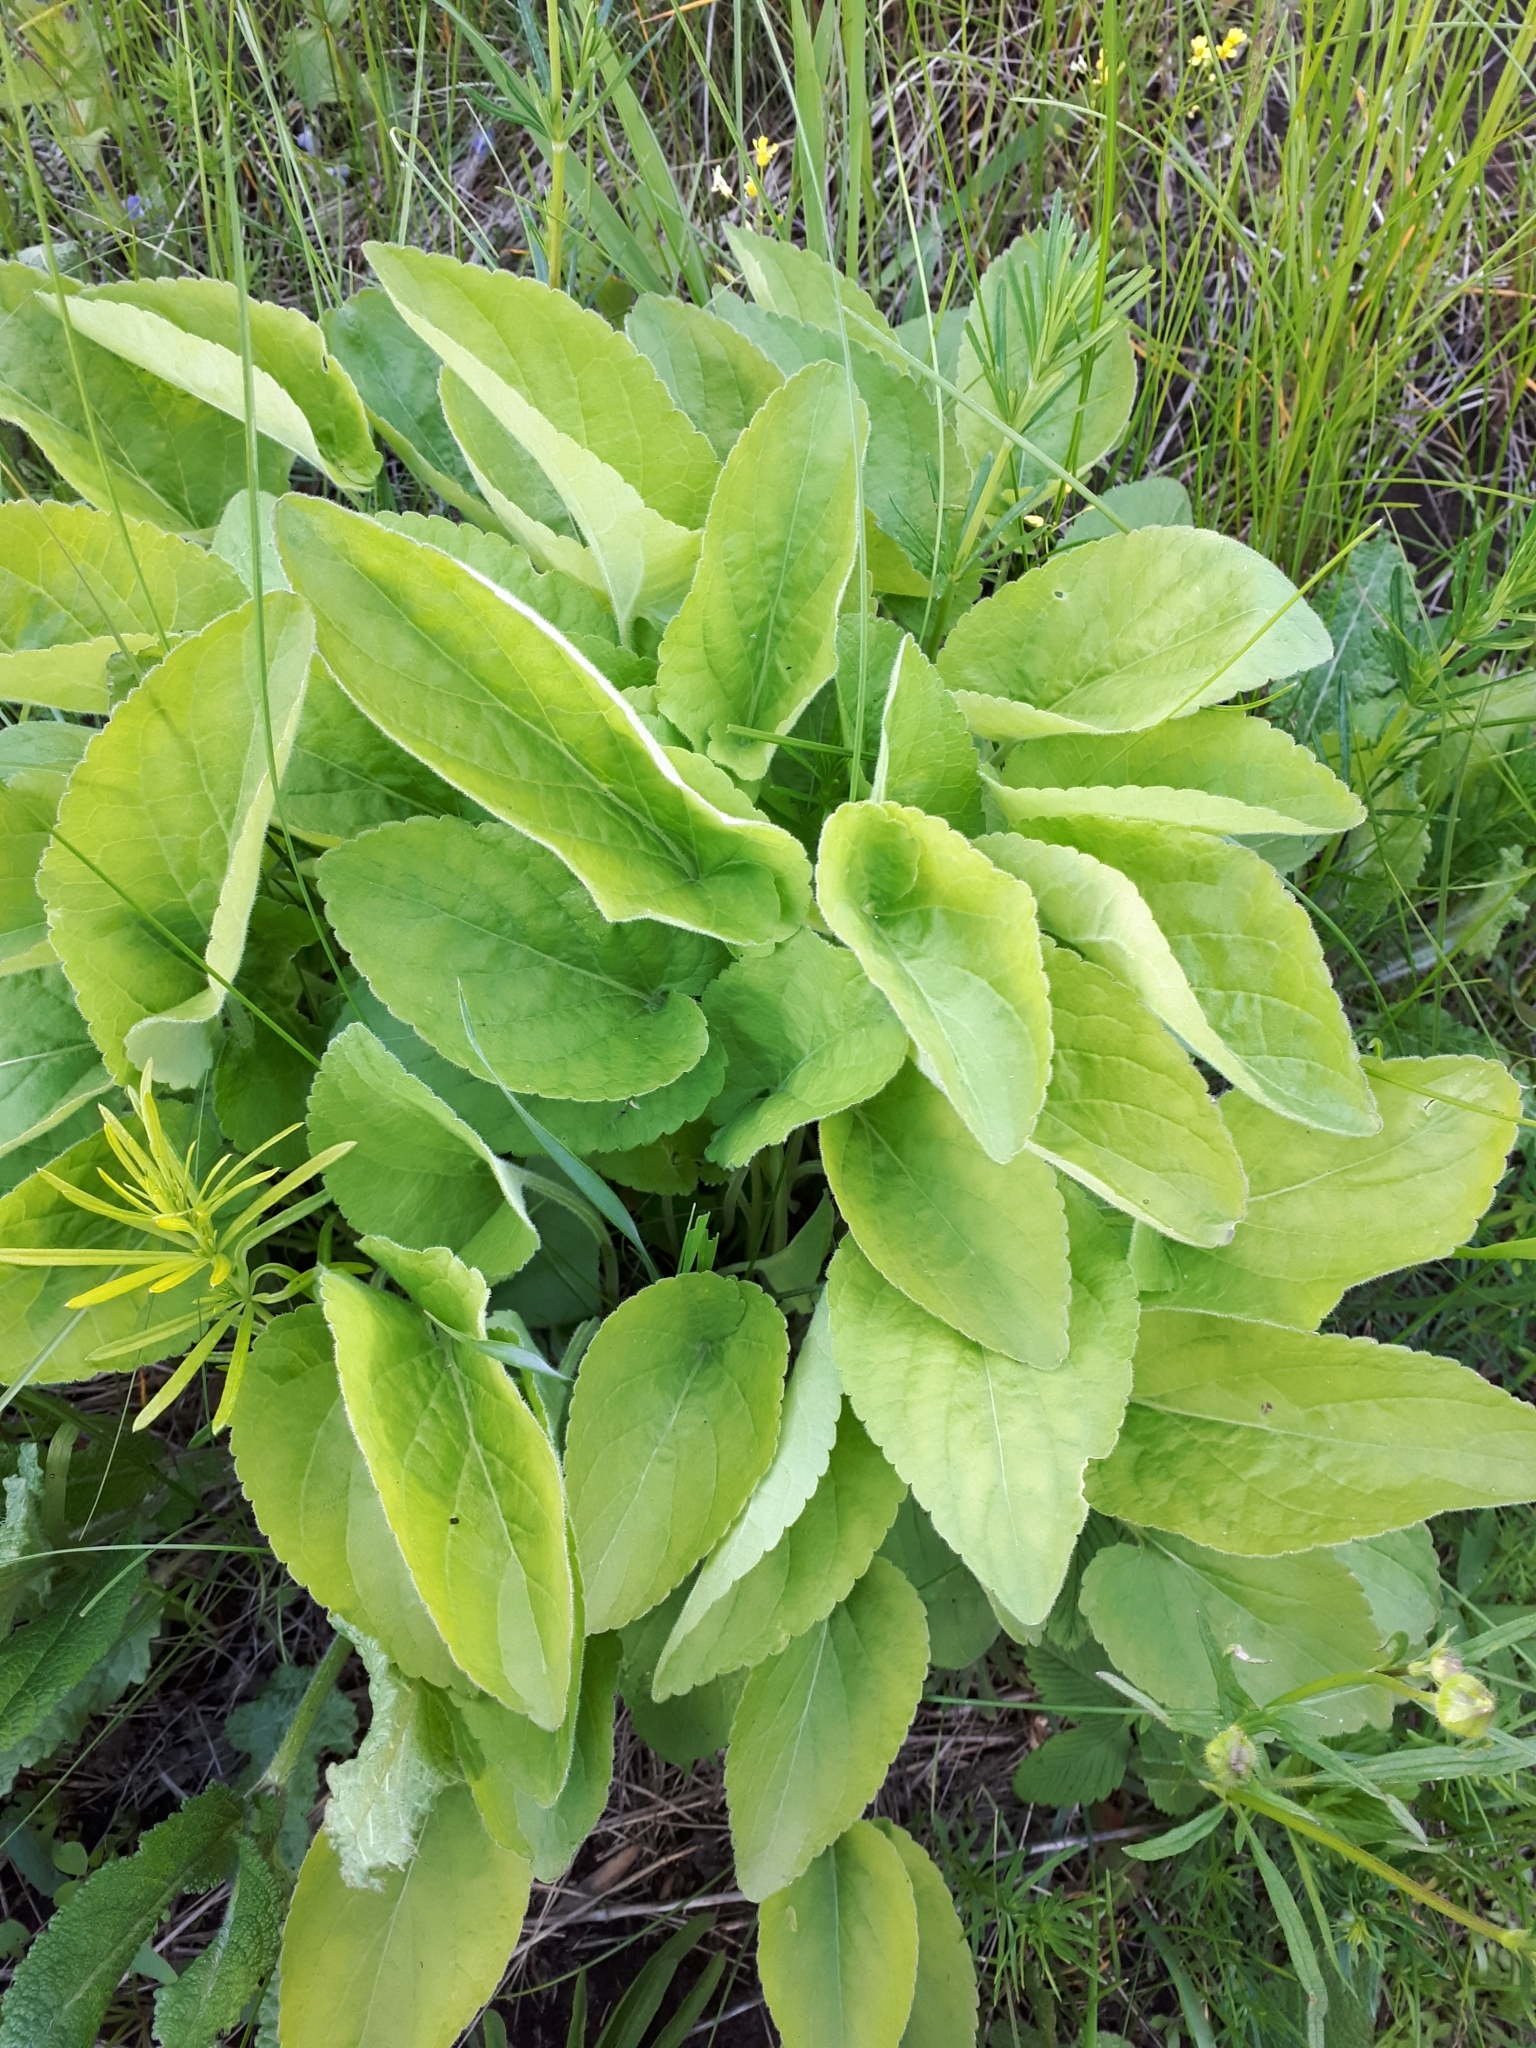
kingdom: Plantae
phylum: Tracheophyta
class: Magnoliopsida
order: Malpighiales
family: Violaceae
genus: Viola
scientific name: Viola hirta
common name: Hairy violet
